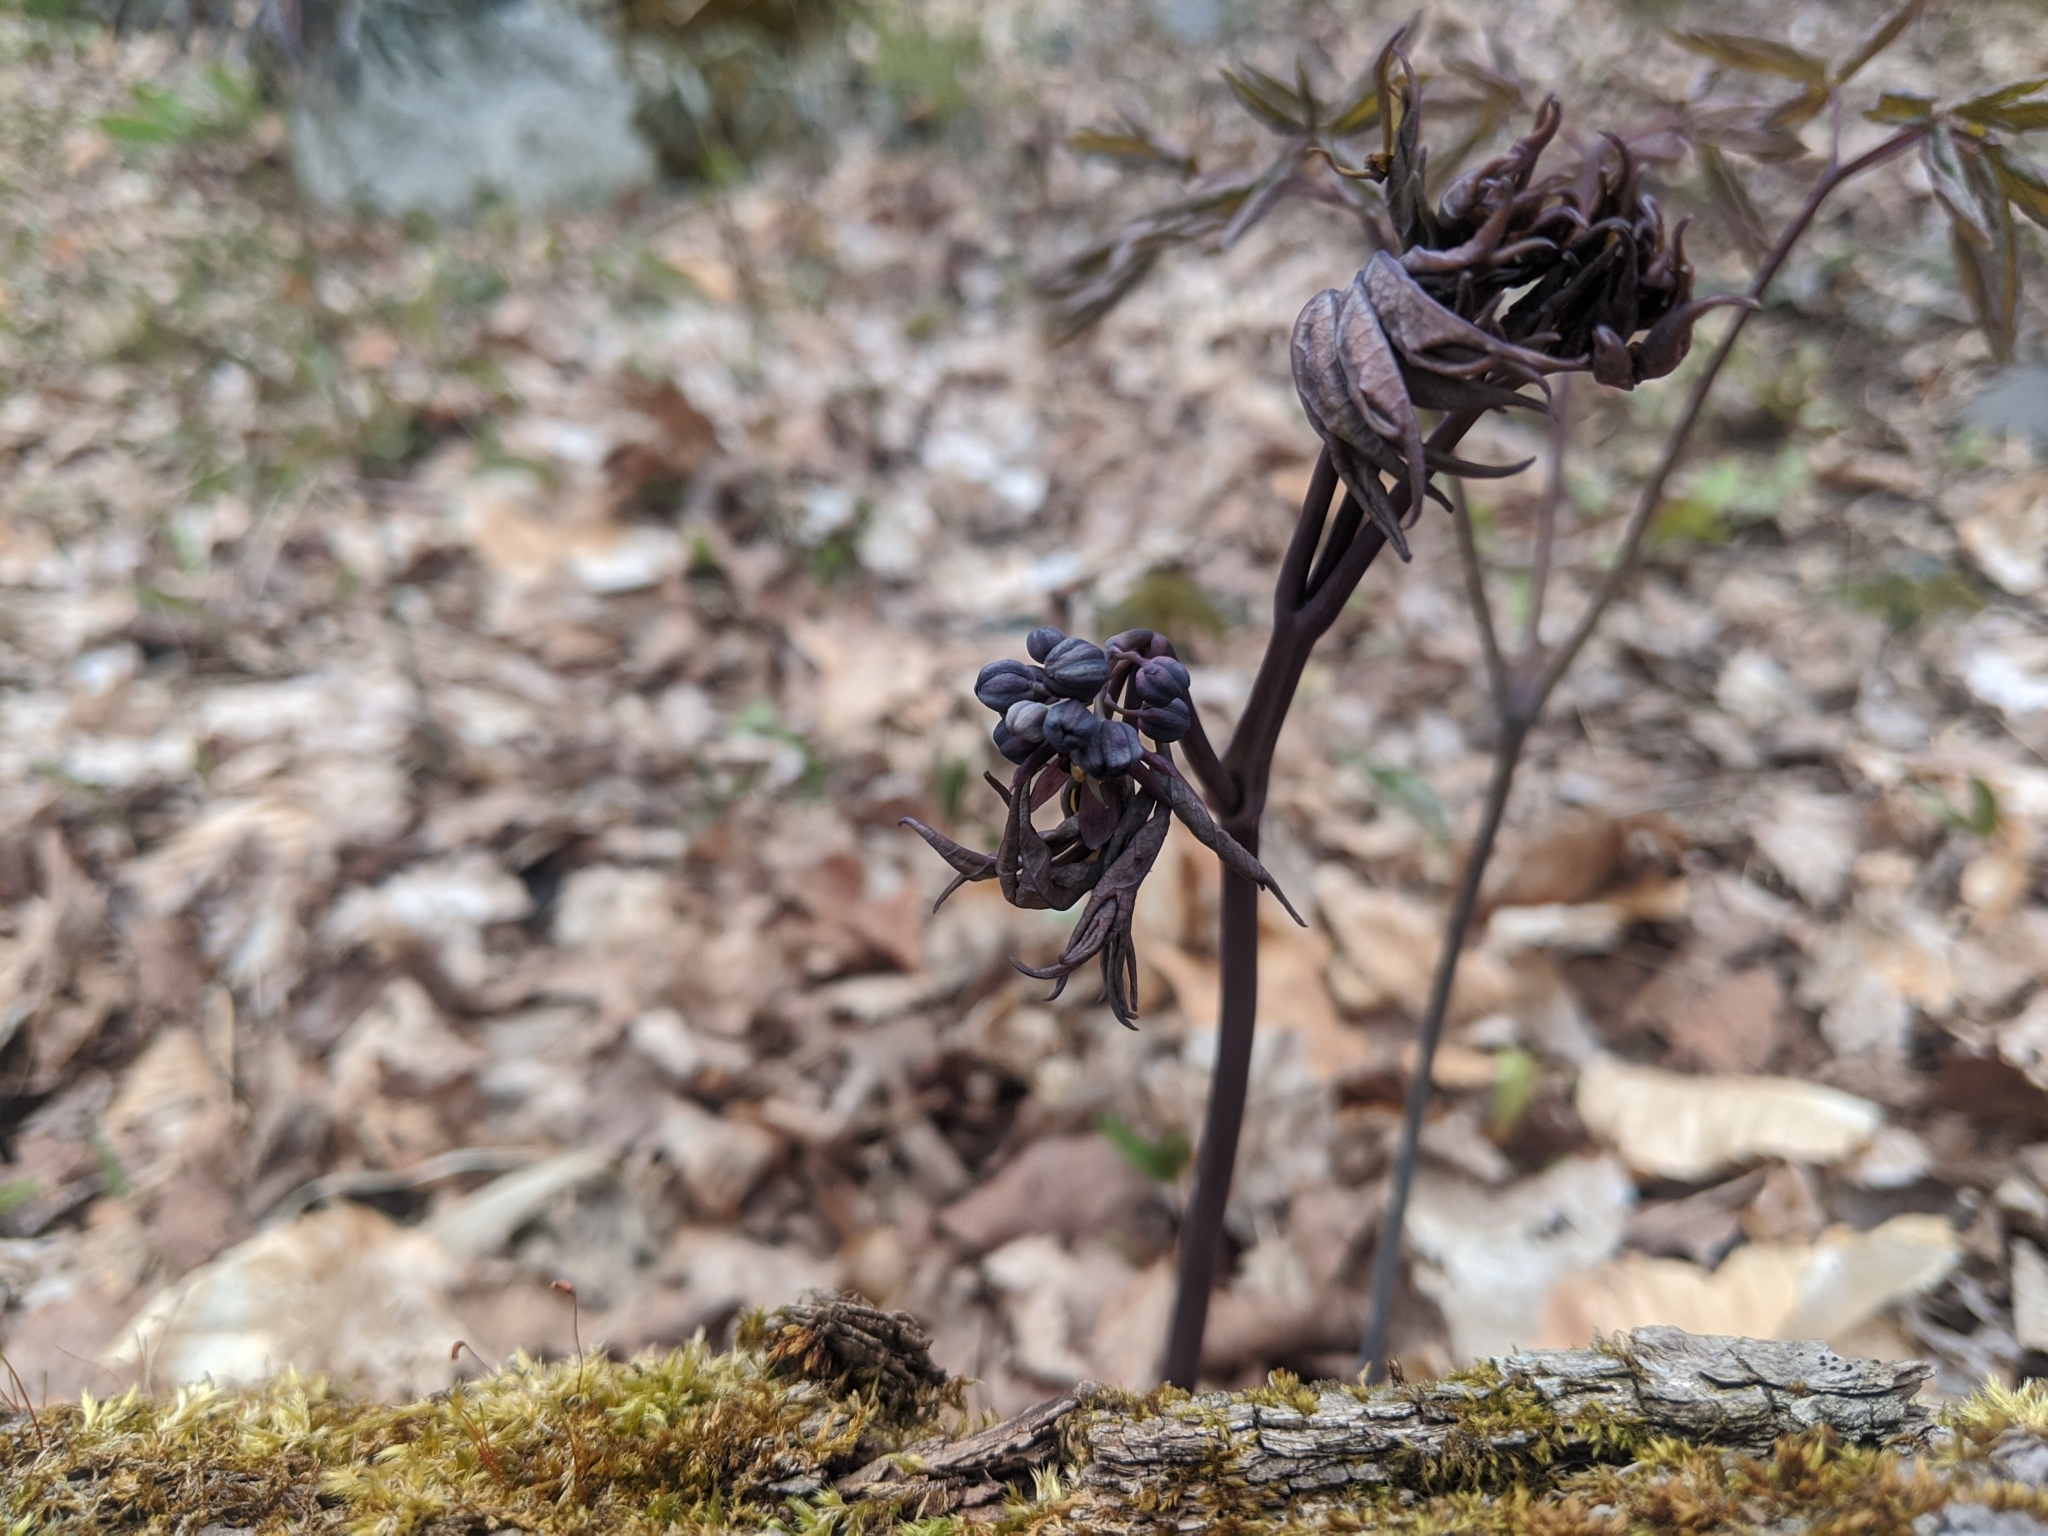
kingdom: Plantae
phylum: Tracheophyta
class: Magnoliopsida
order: Ranunculales
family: Berberidaceae
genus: Caulophyllum
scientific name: Caulophyllum giganteum
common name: Blue cohosh
